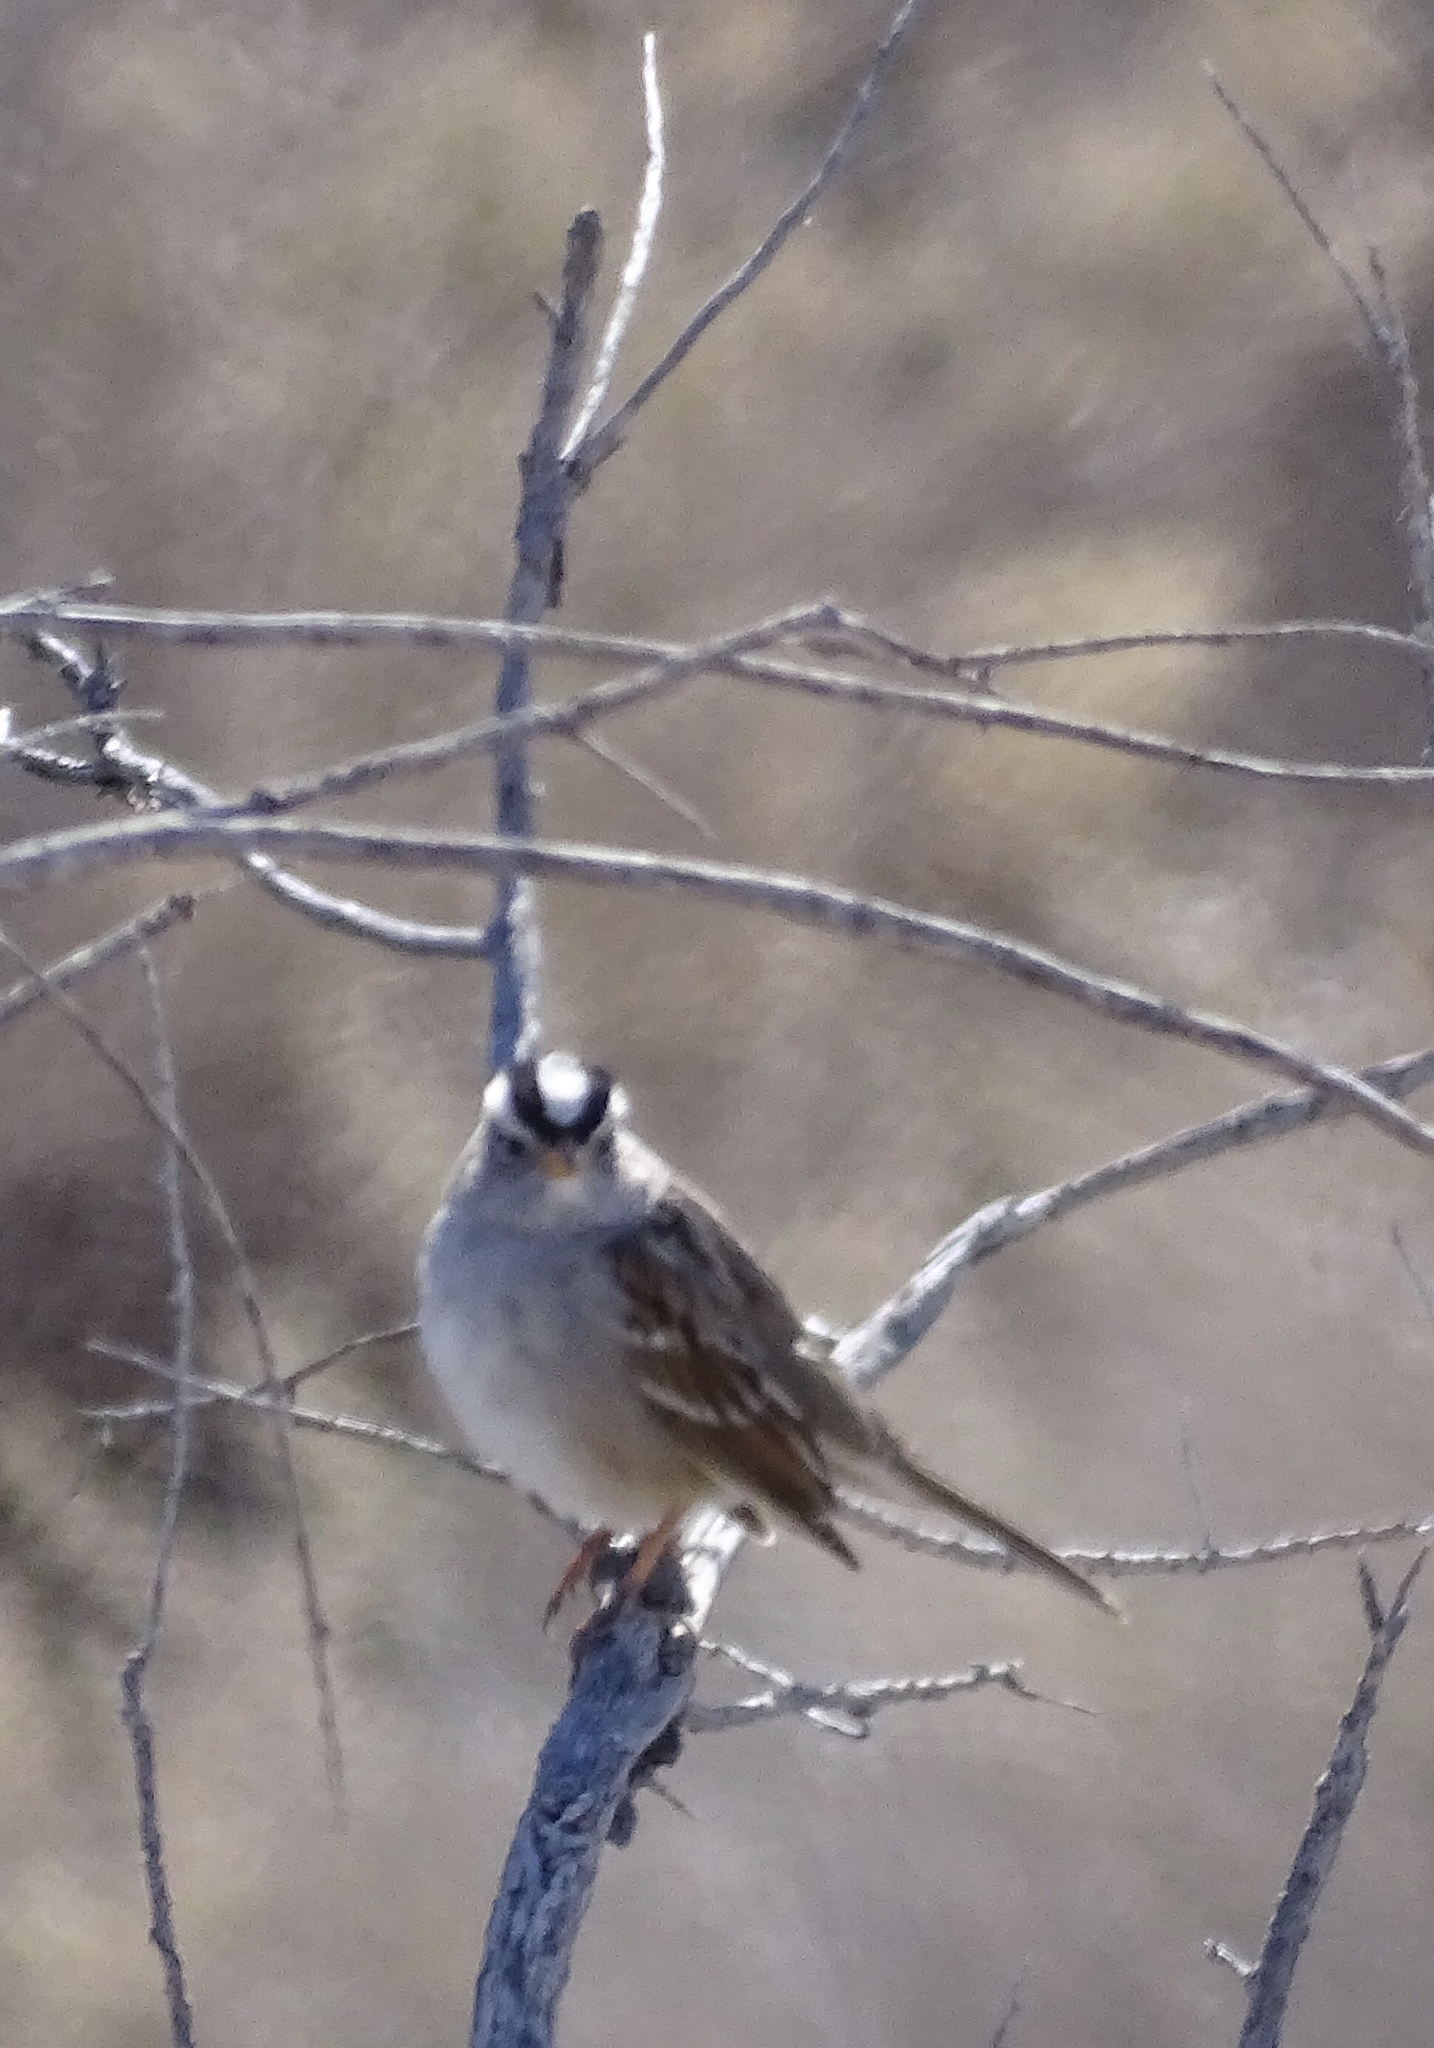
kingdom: Animalia
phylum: Chordata
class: Aves
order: Passeriformes
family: Passerellidae
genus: Zonotrichia
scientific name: Zonotrichia leucophrys
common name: White-crowned sparrow
